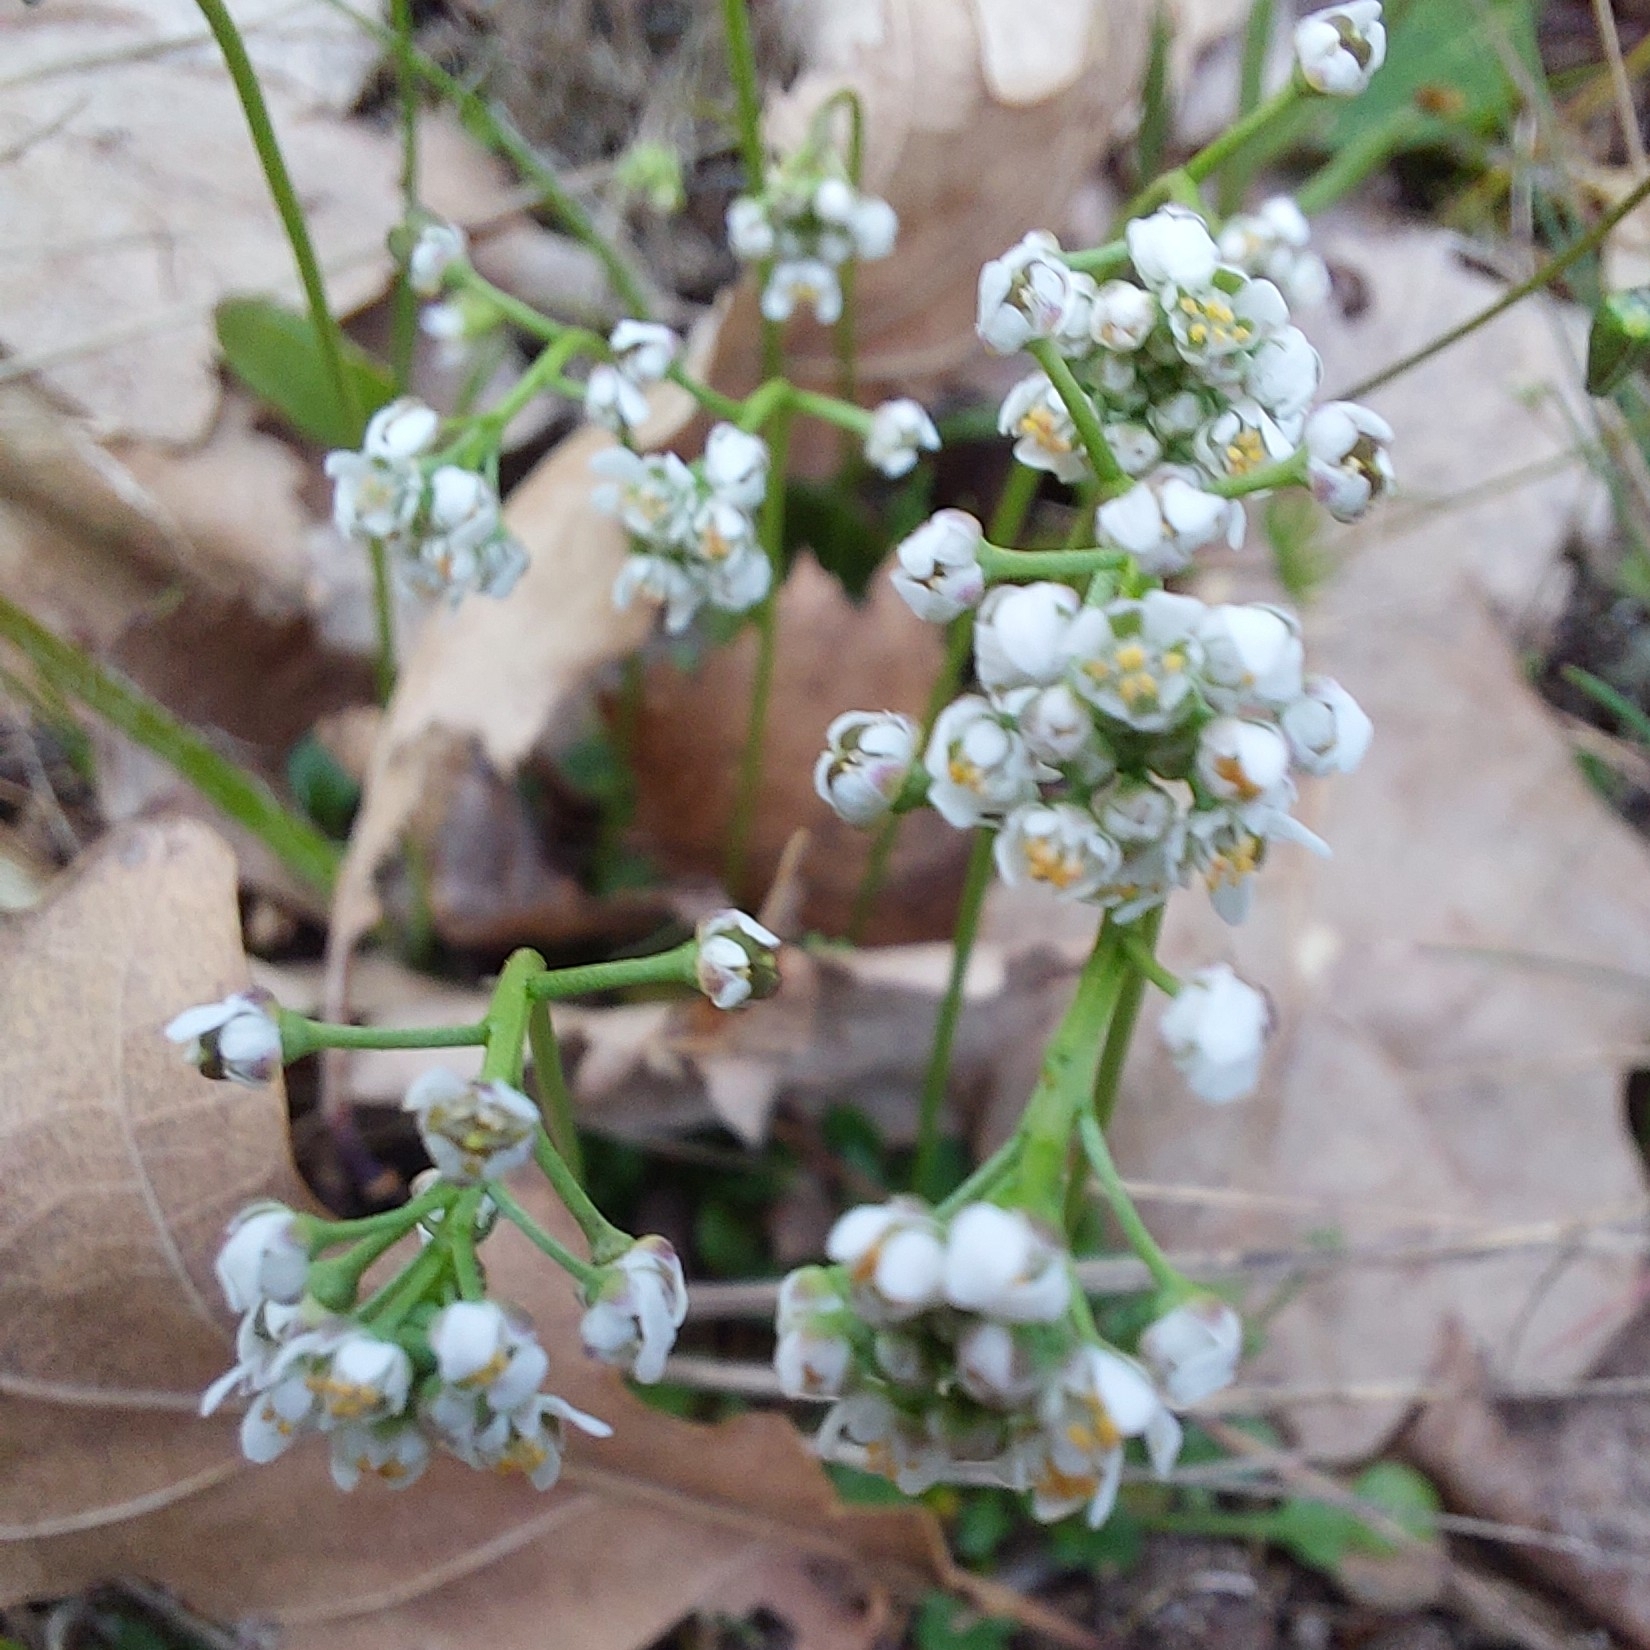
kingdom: Plantae
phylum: Tracheophyta
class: Magnoliopsida
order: Brassicales
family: Brassicaceae
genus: Teesdalia
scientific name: Teesdalia nudicaulis
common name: Shepherd's cress
